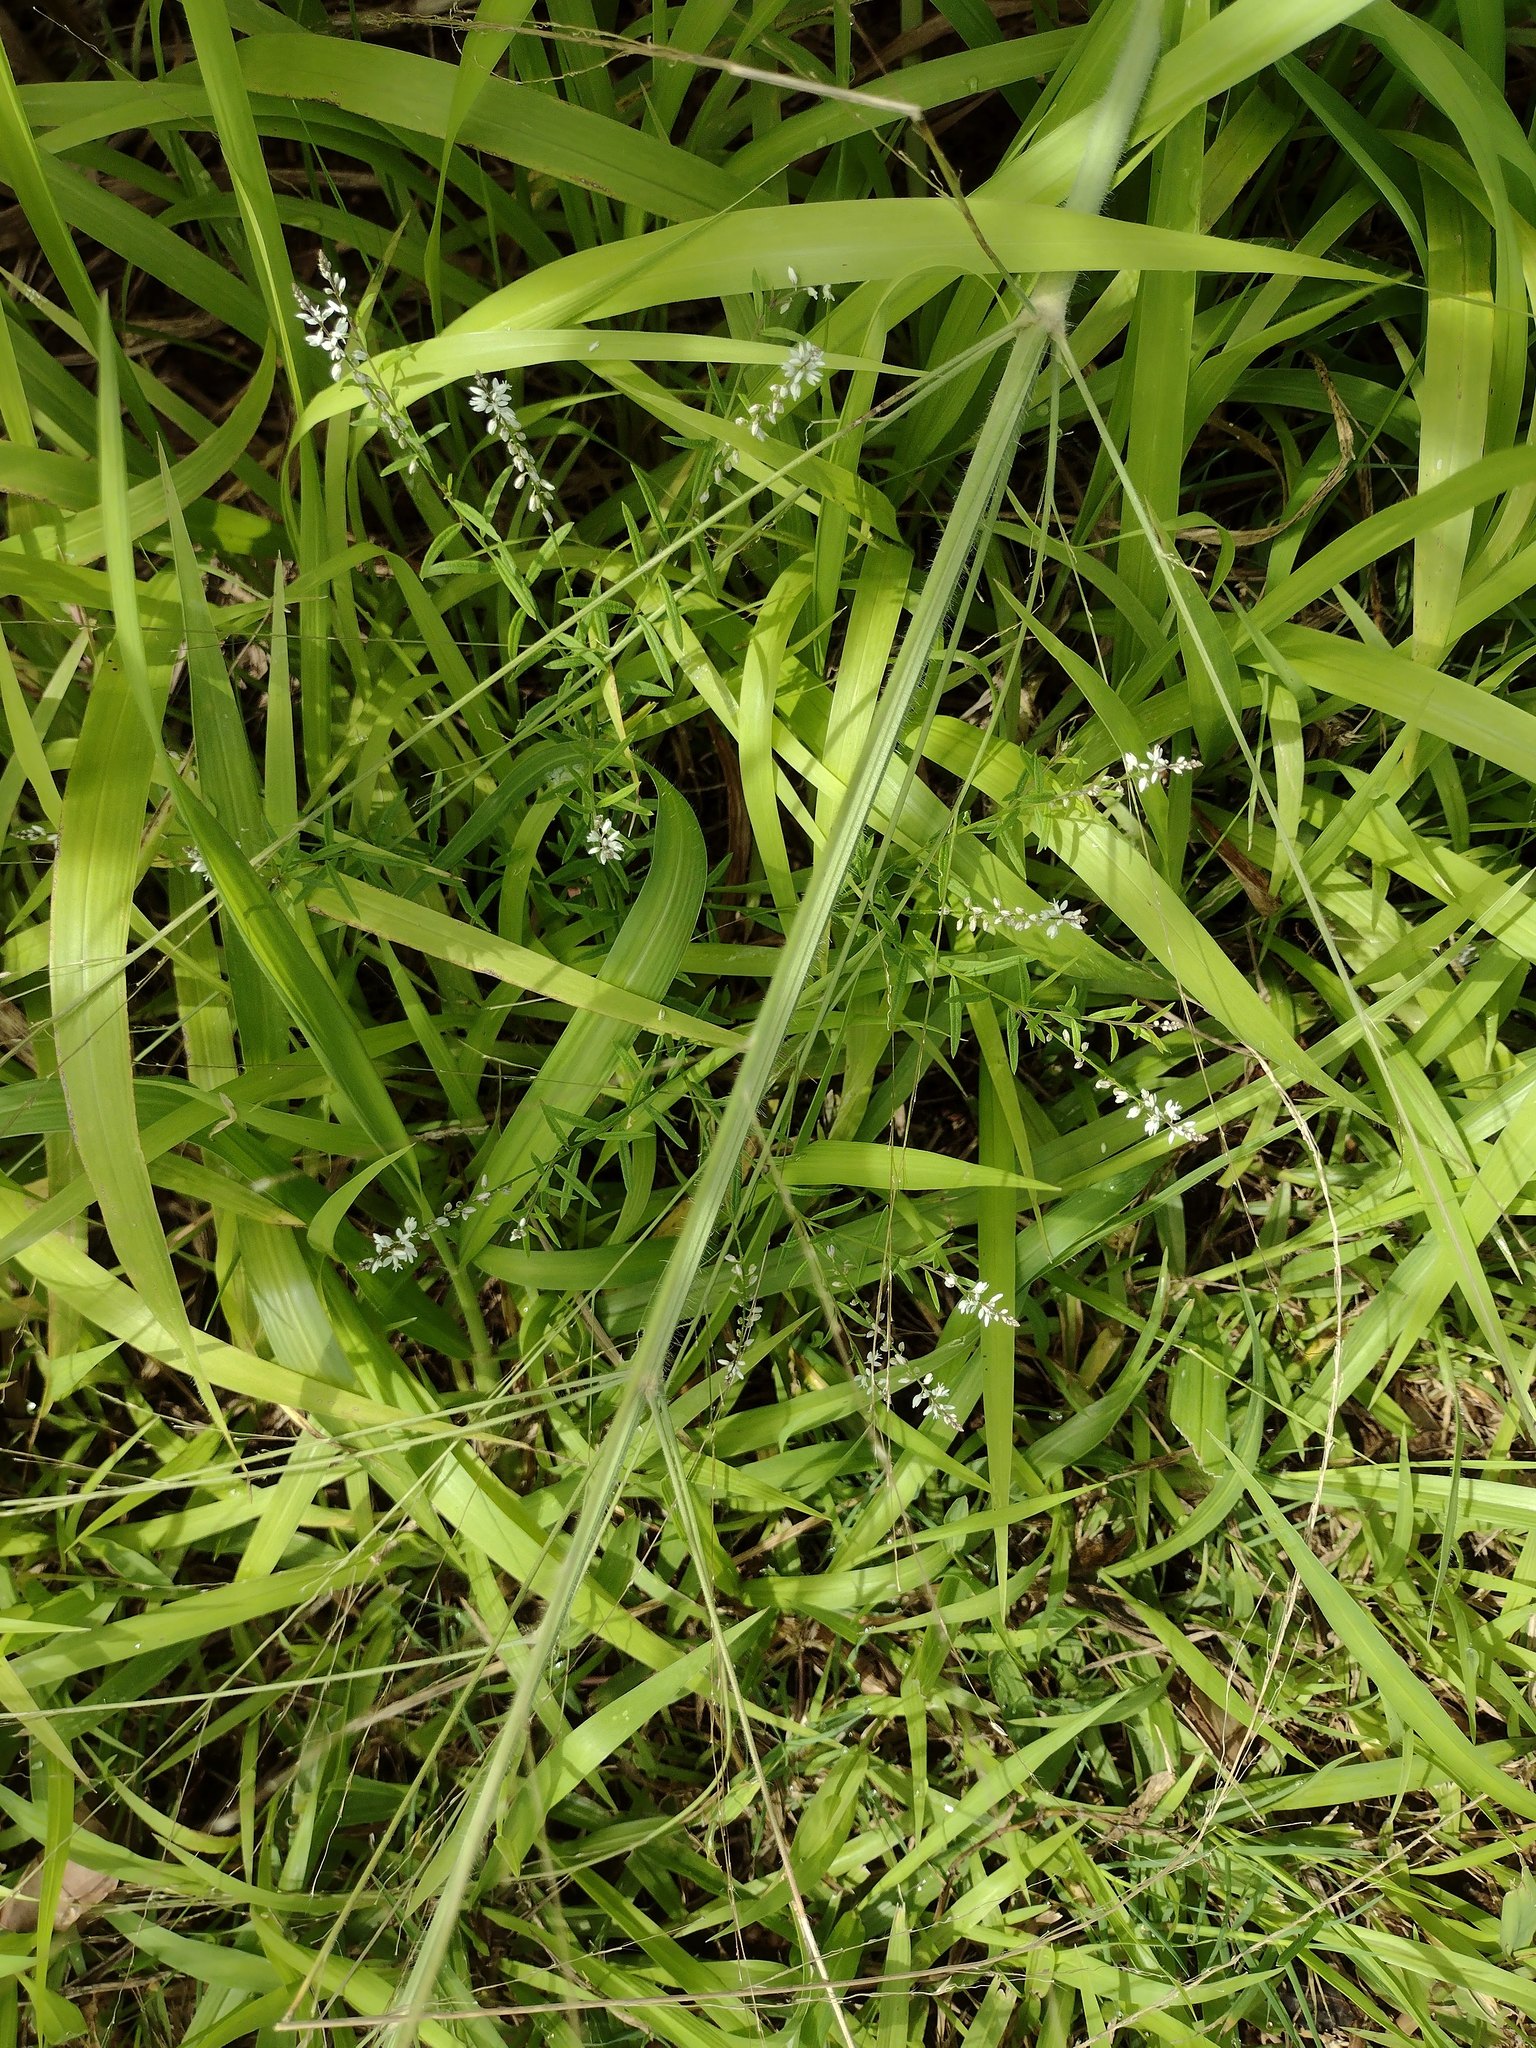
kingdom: Plantae
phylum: Tracheophyta
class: Magnoliopsida
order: Fabales
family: Polygalaceae
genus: Polygala
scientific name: Polygala paniculata
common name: Orosne
